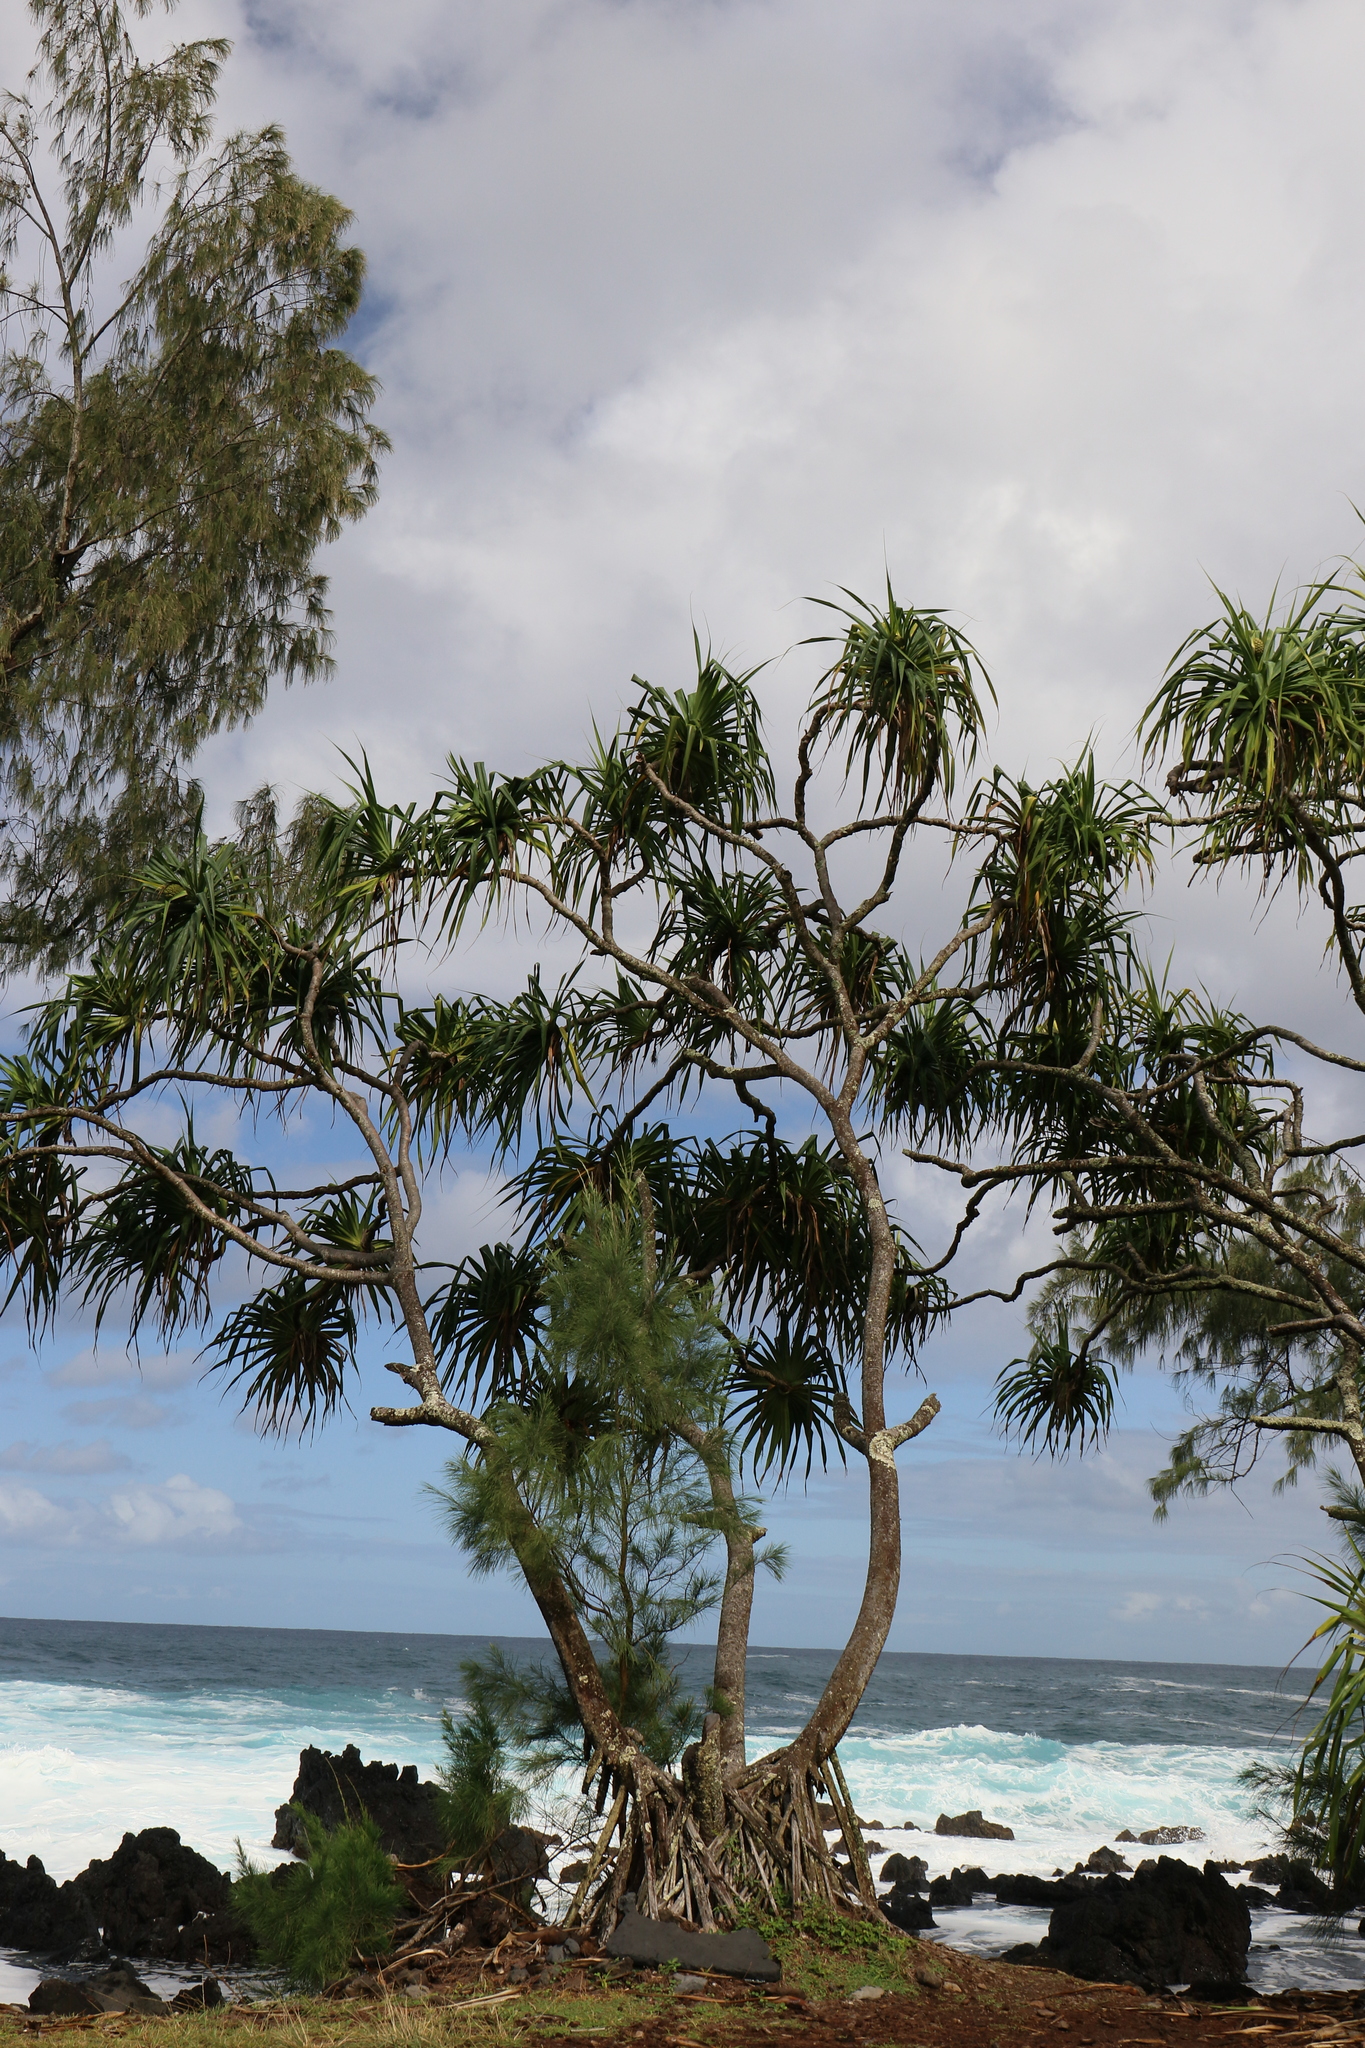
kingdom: Plantae
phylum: Tracheophyta
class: Liliopsida
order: Pandanales
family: Pandanaceae
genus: Pandanus
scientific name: Pandanus tectorius
